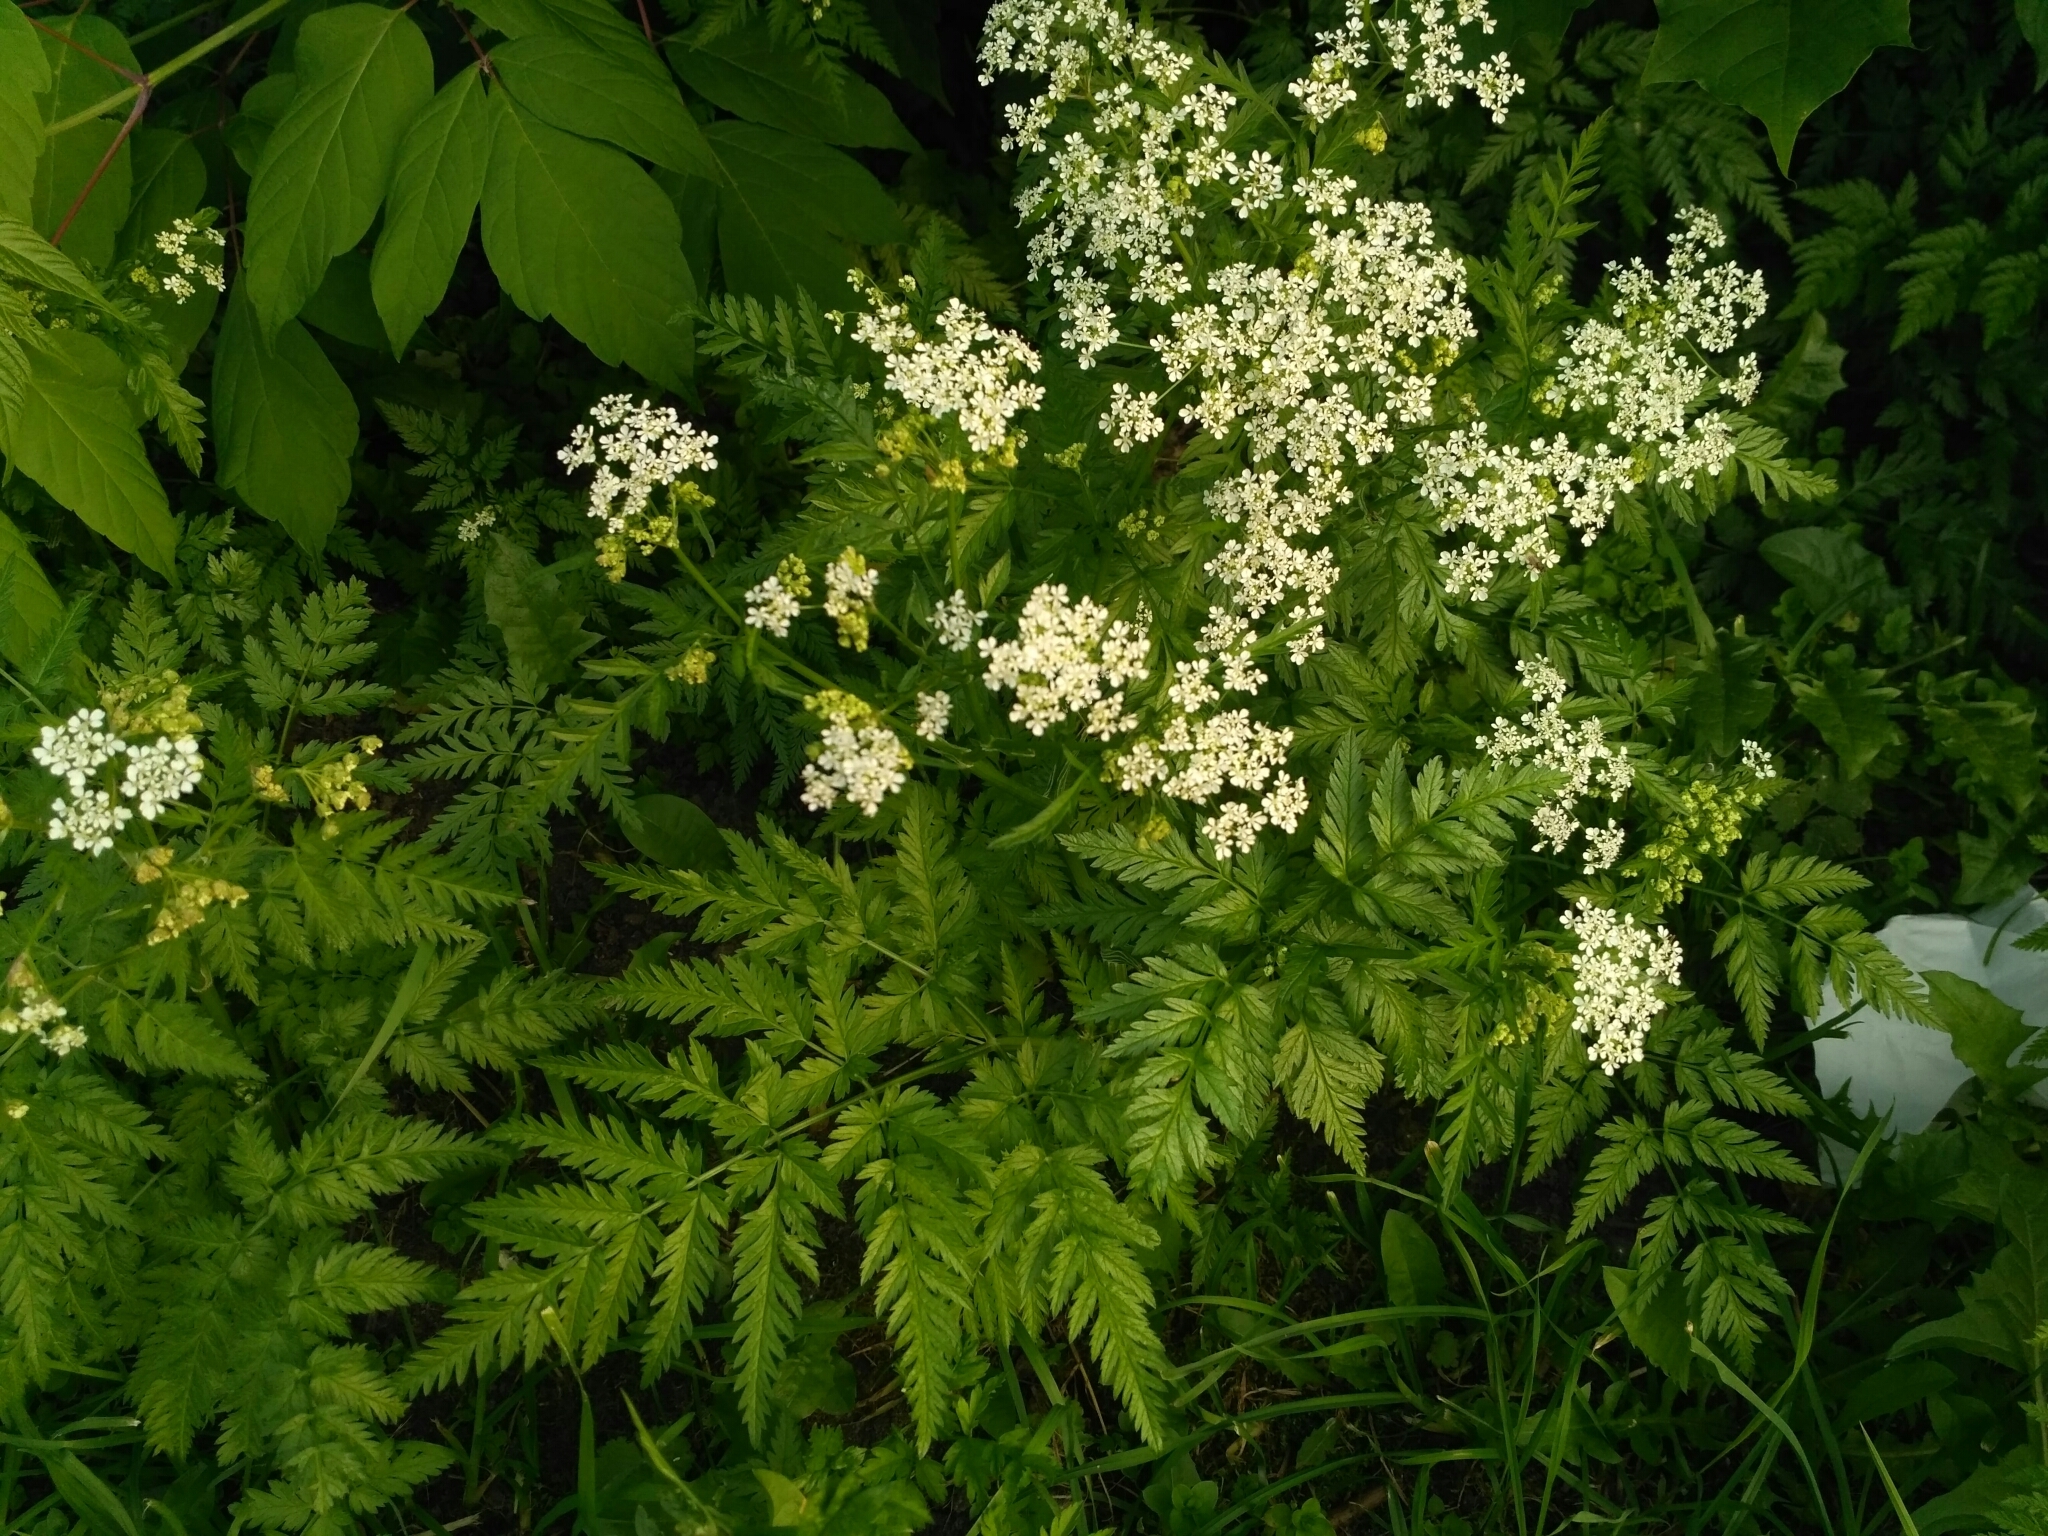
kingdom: Plantae
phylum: Tracheophyta
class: Magnoliopsida
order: Apiales
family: Apiaceae
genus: Anthriscus
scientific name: Anthriscus sylvestris
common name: Cow parsley
